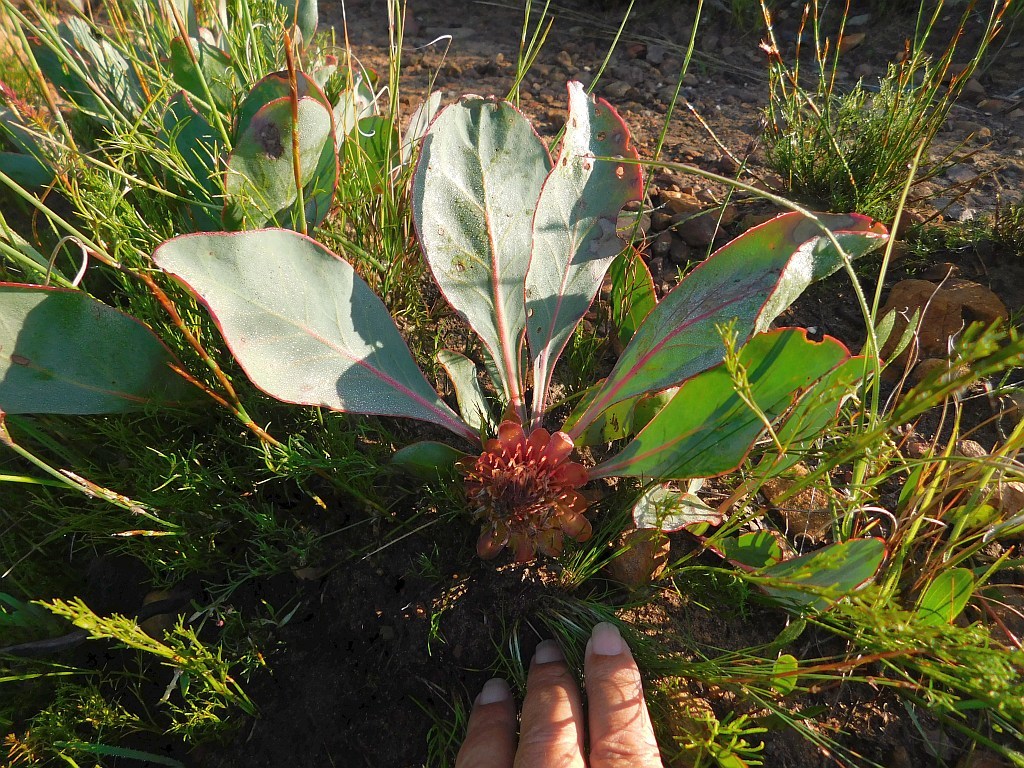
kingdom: Plantae
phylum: Tracheophyta
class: Magnoliopsida
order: Proteales
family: Proteaceae
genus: Protea
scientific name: Protea acaulos
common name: Common ground sugarbush
